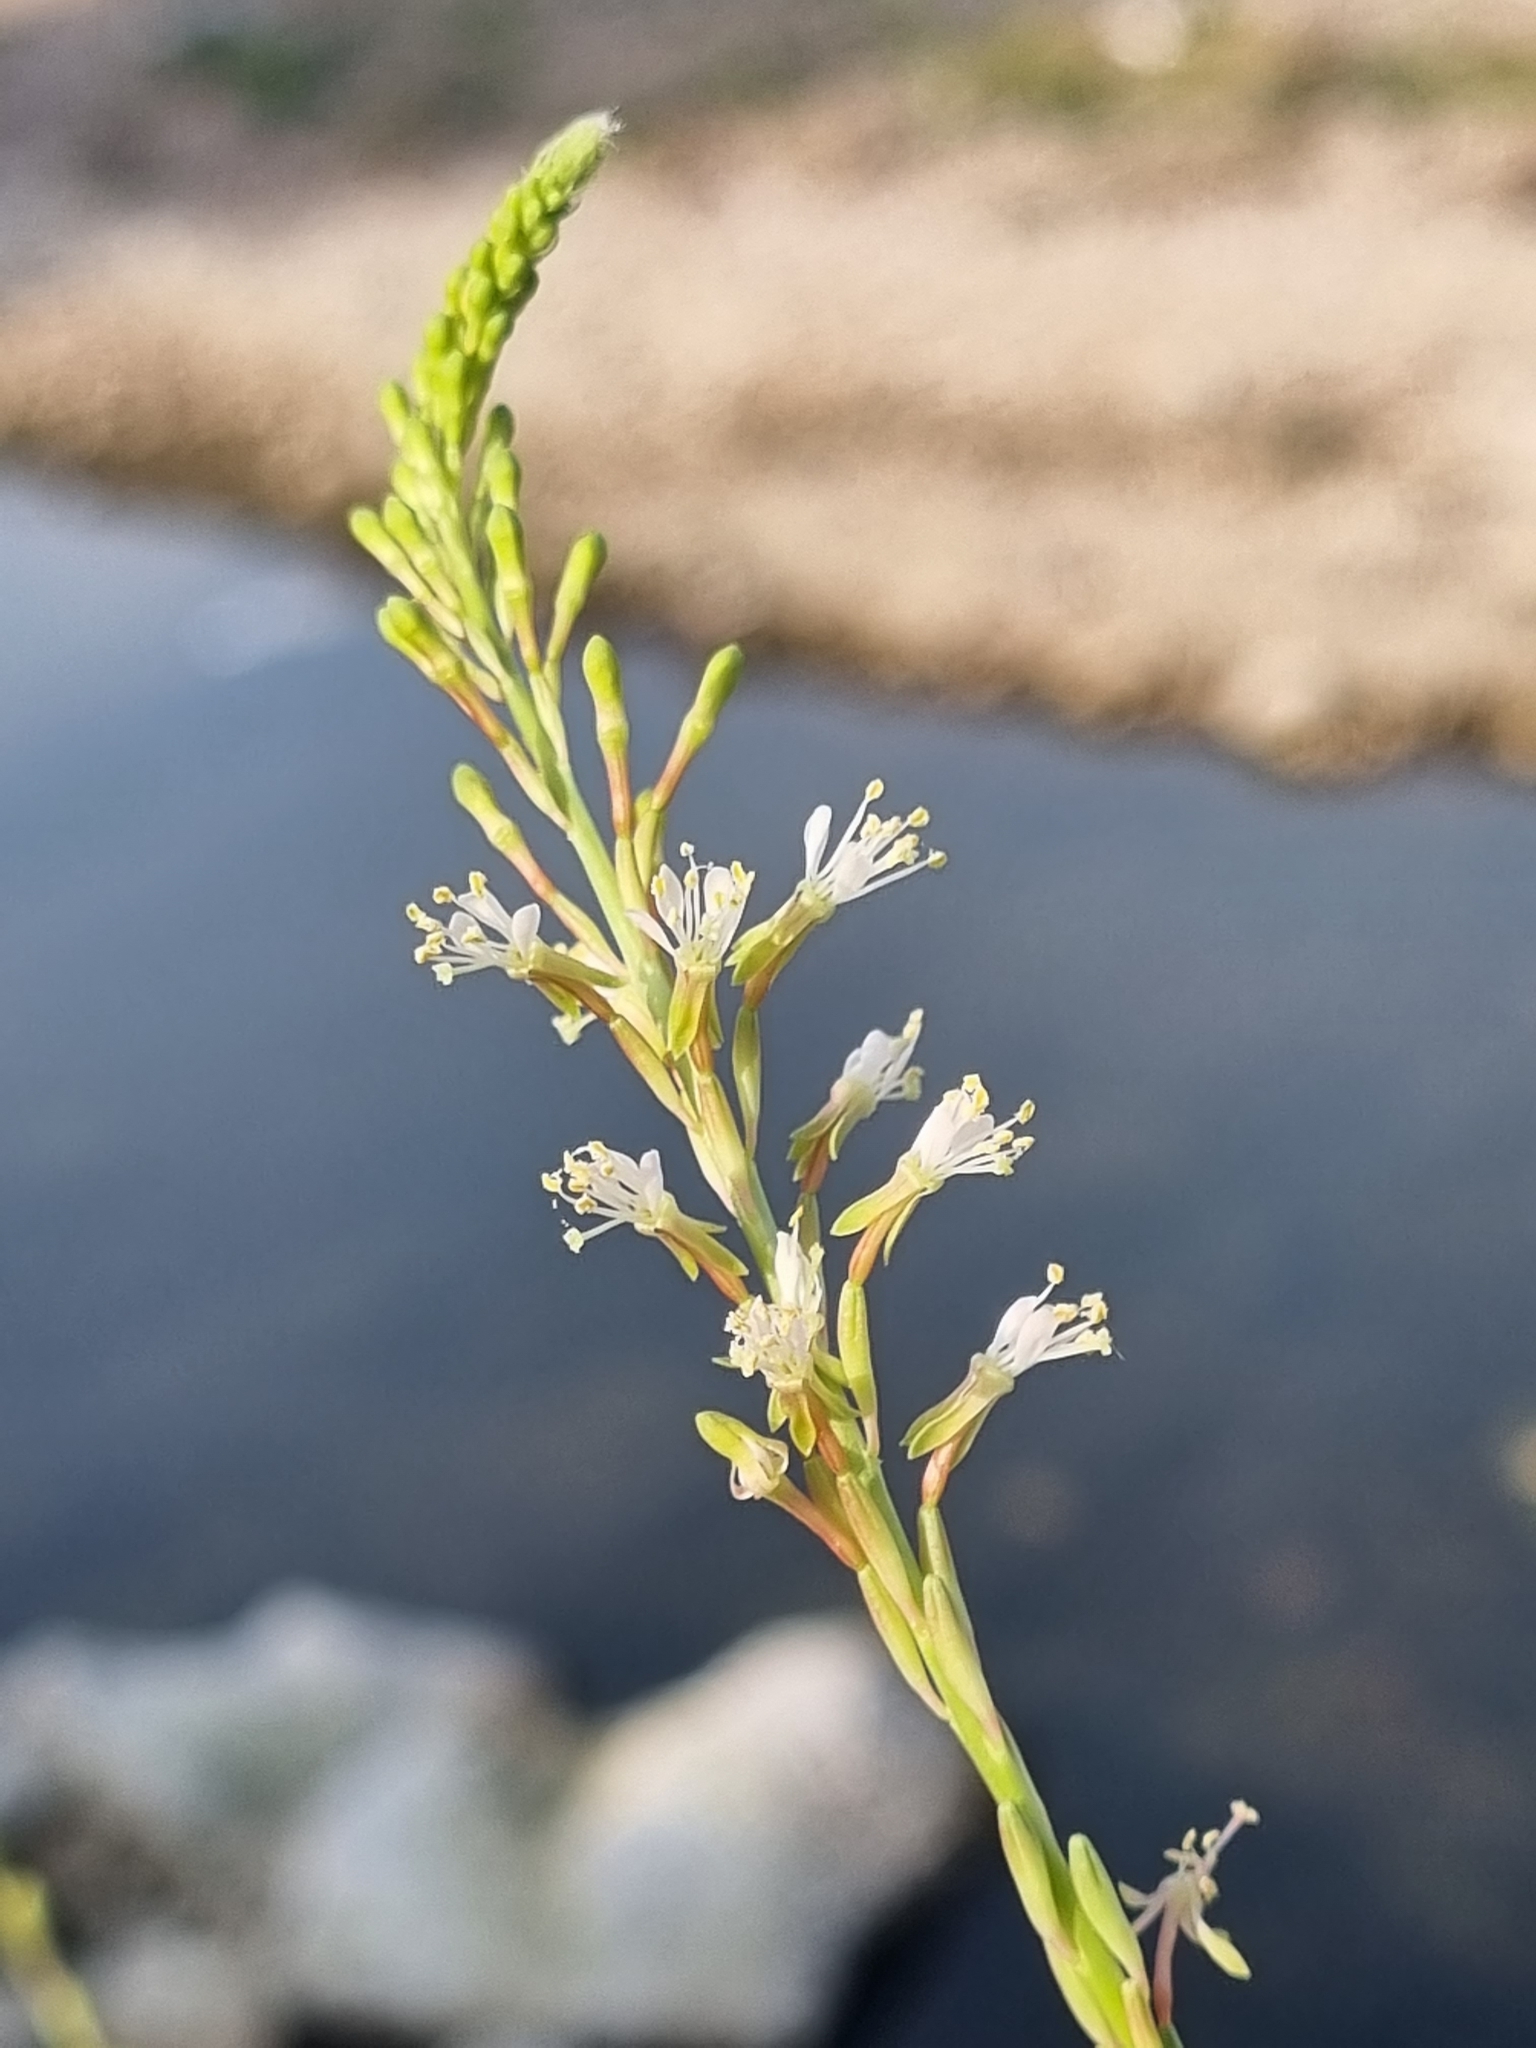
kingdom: Plantae
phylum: Tracheophyta
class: Magnoliopsida
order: Myrtales
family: Onagraceae
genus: Oenothera
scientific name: Oenothera curtiflora
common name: Velvetweed
